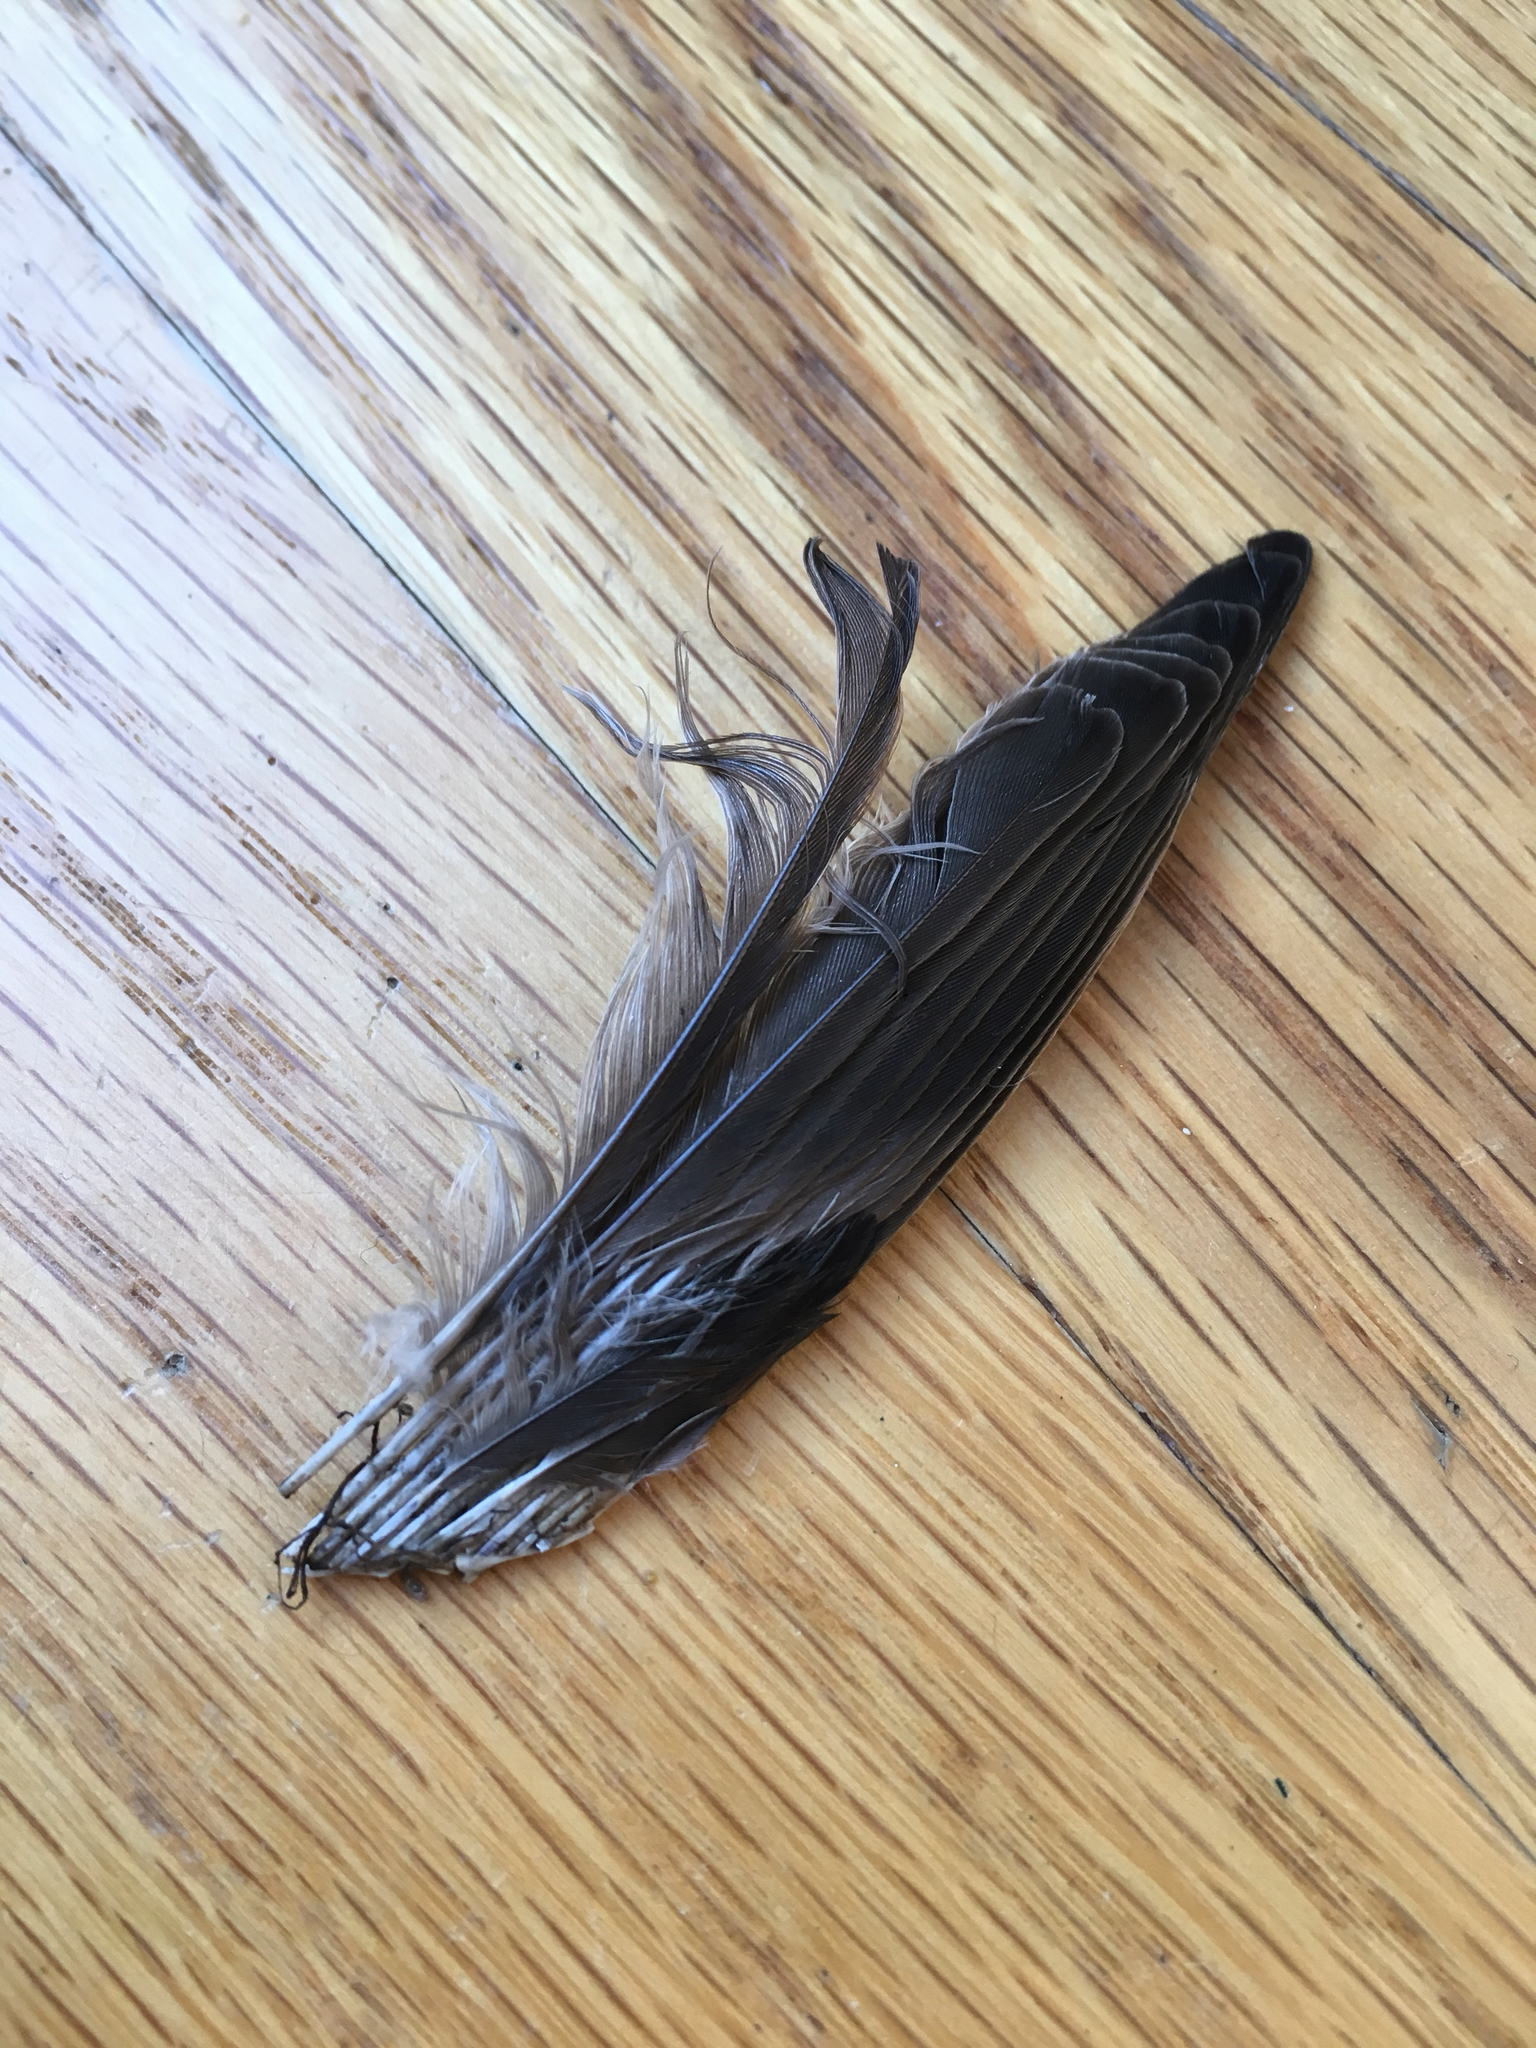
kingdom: Animalia
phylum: Chordata
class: Aves
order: Passeriformes
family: Passeridae
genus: Passer
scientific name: Passer domesticus
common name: House sparrow
